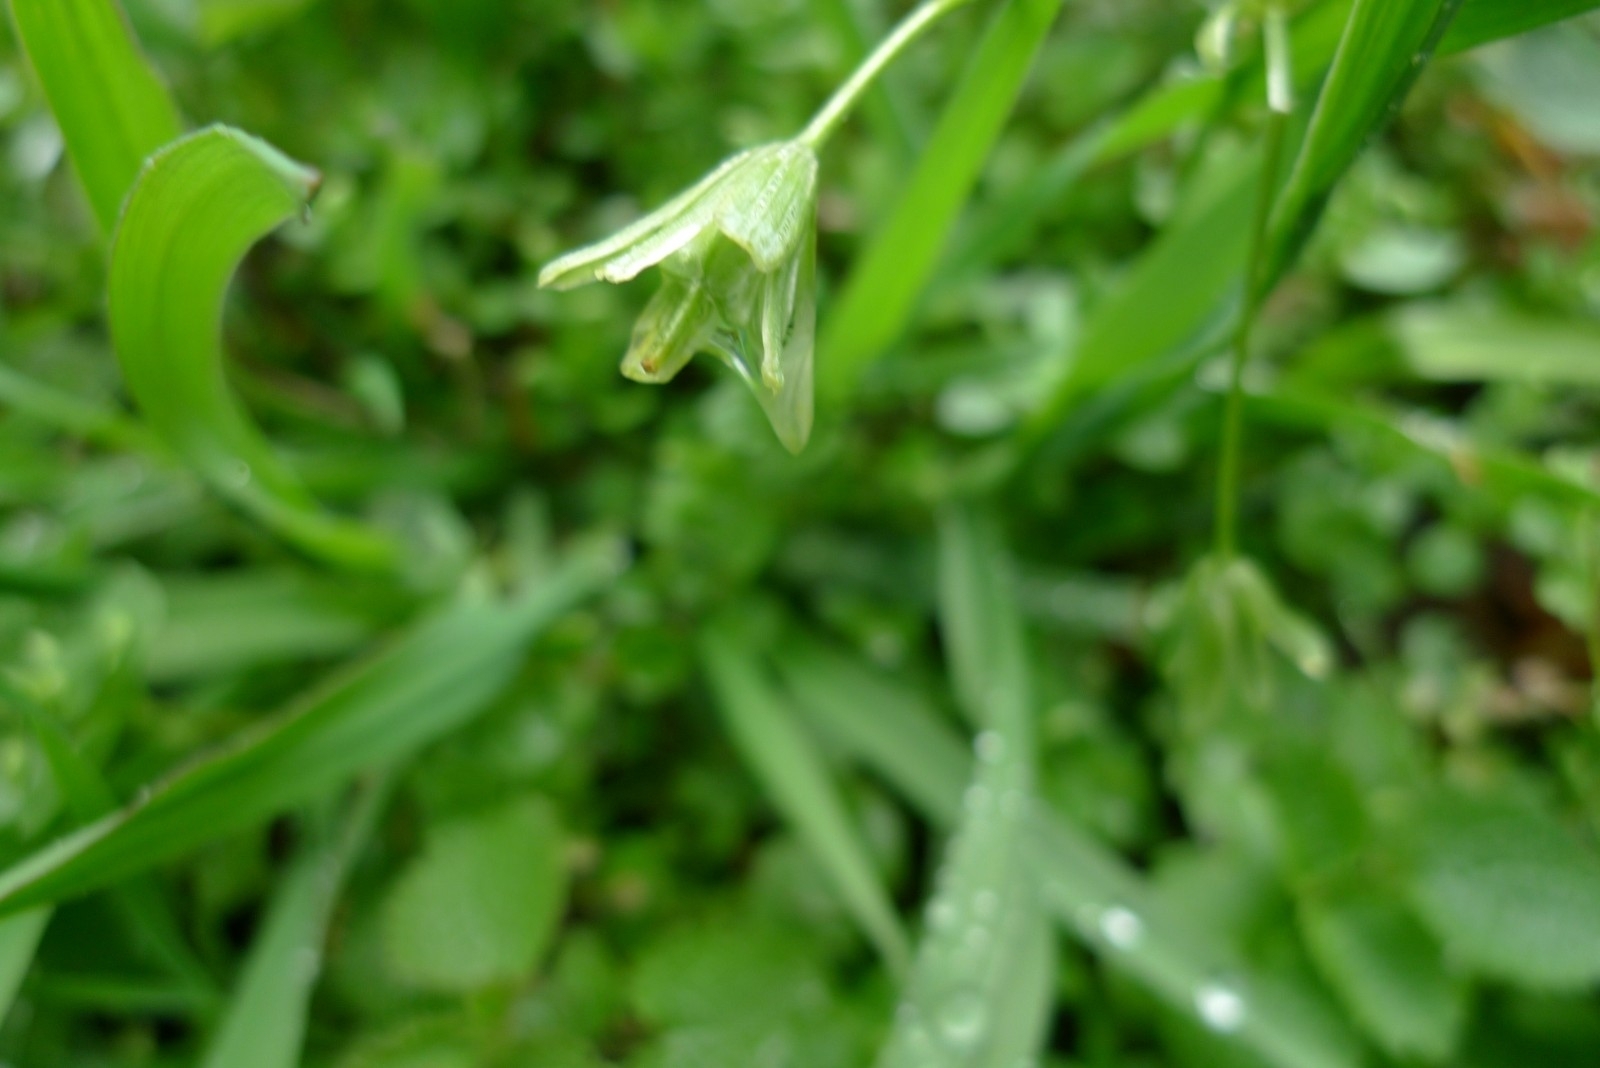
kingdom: Plantae
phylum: Tracheophyta
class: Liliopsida
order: Liliales
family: Liliaceae
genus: Gagea
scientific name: Gagea lutea
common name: Yellow star-of-bethlehem
